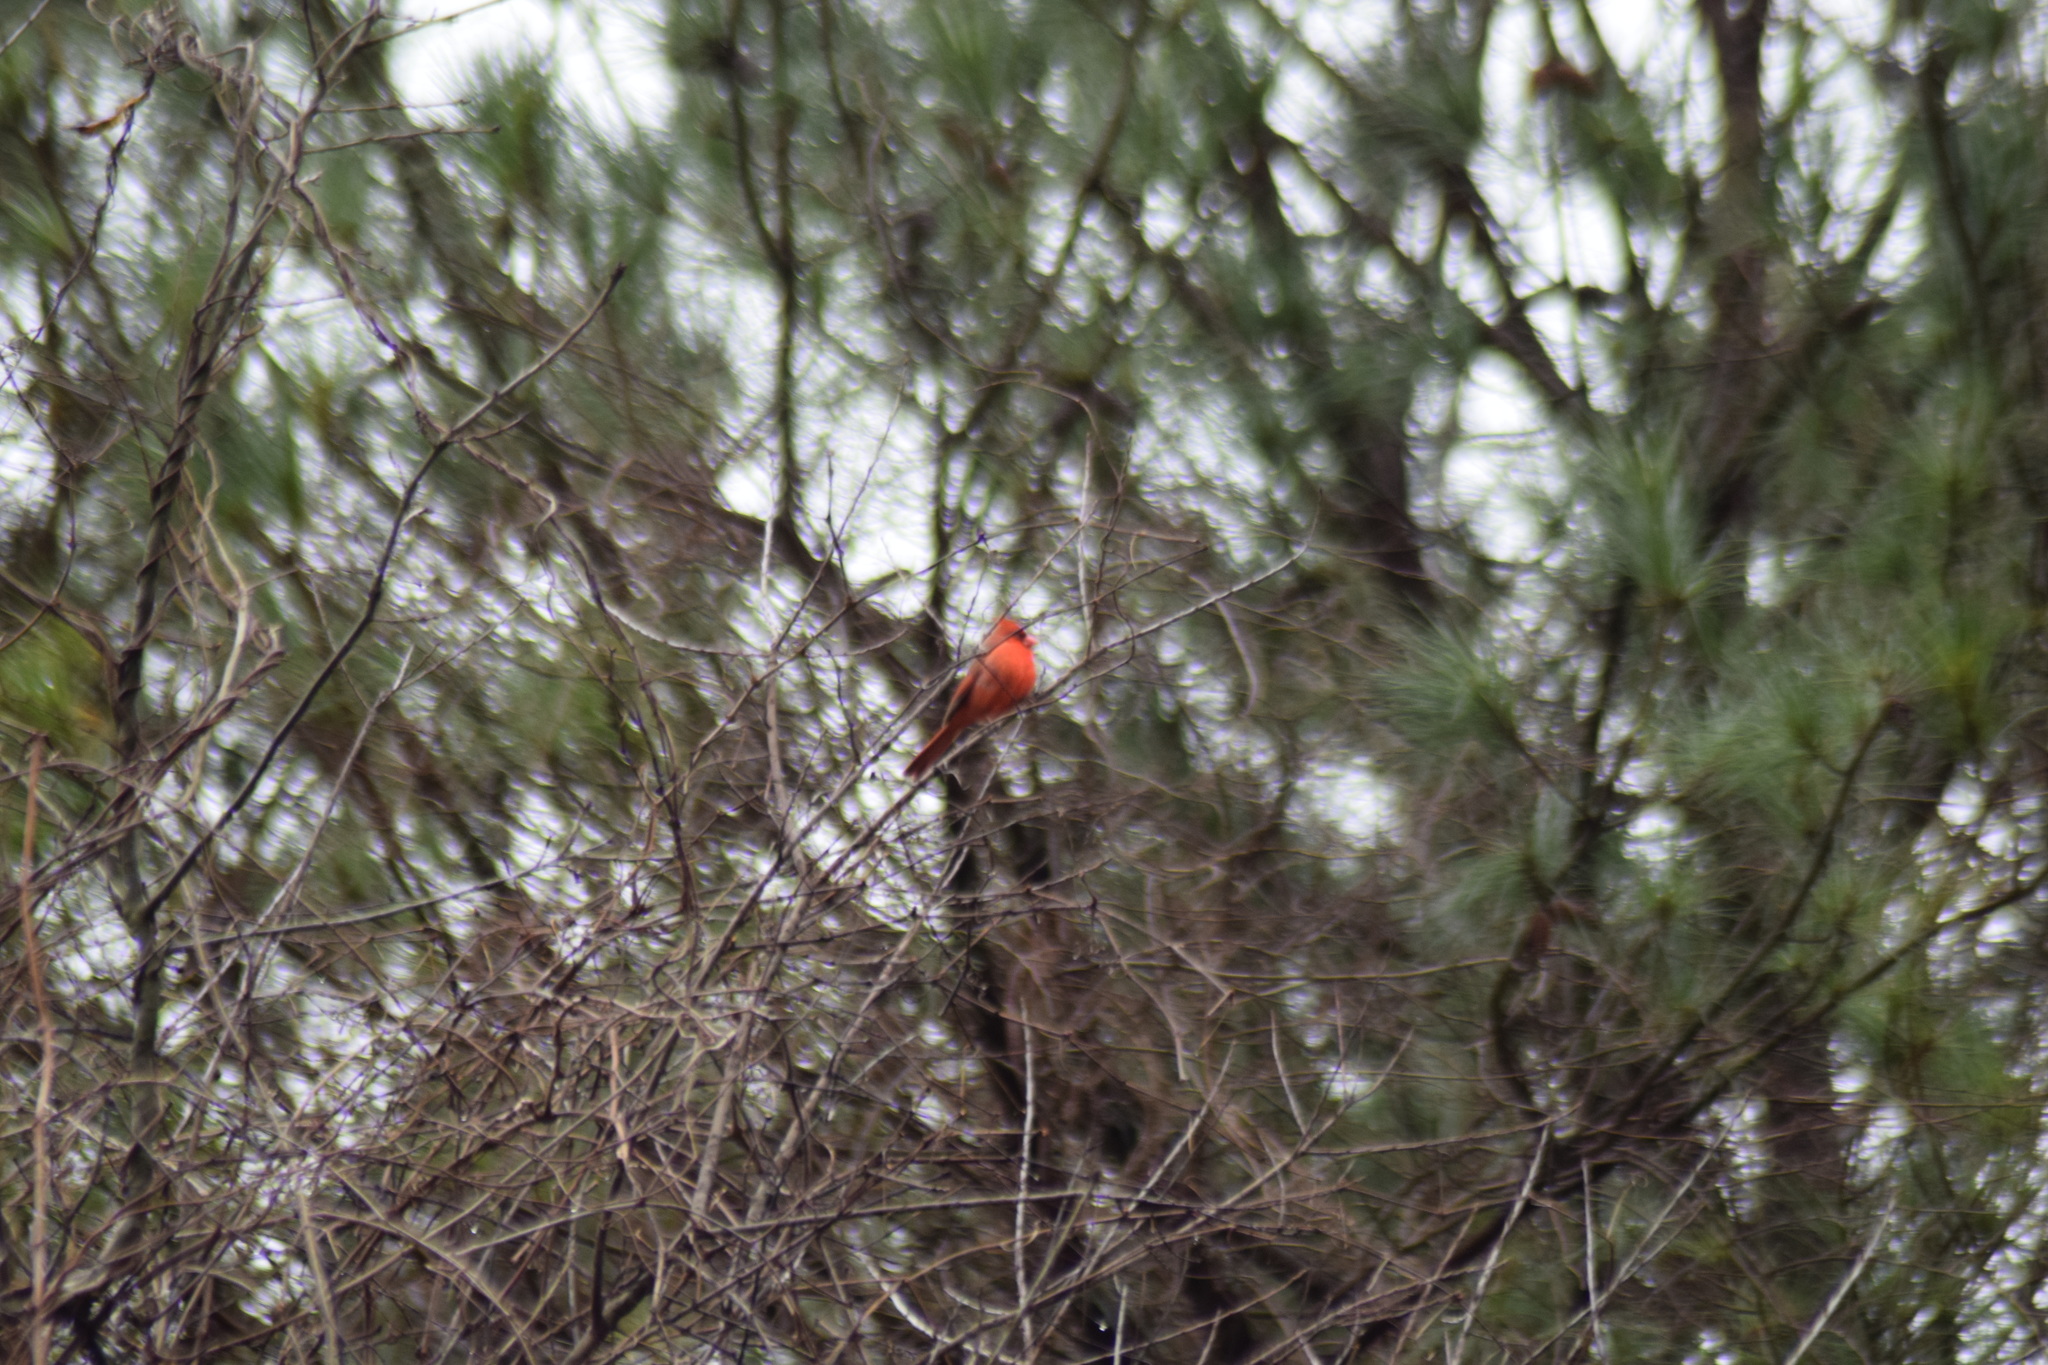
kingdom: Animalia
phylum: Chordata
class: Aves
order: Passeriformes
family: Cardinalidae
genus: Cardinalis
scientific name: Cardinalis cardinalis
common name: Northern cardinal
